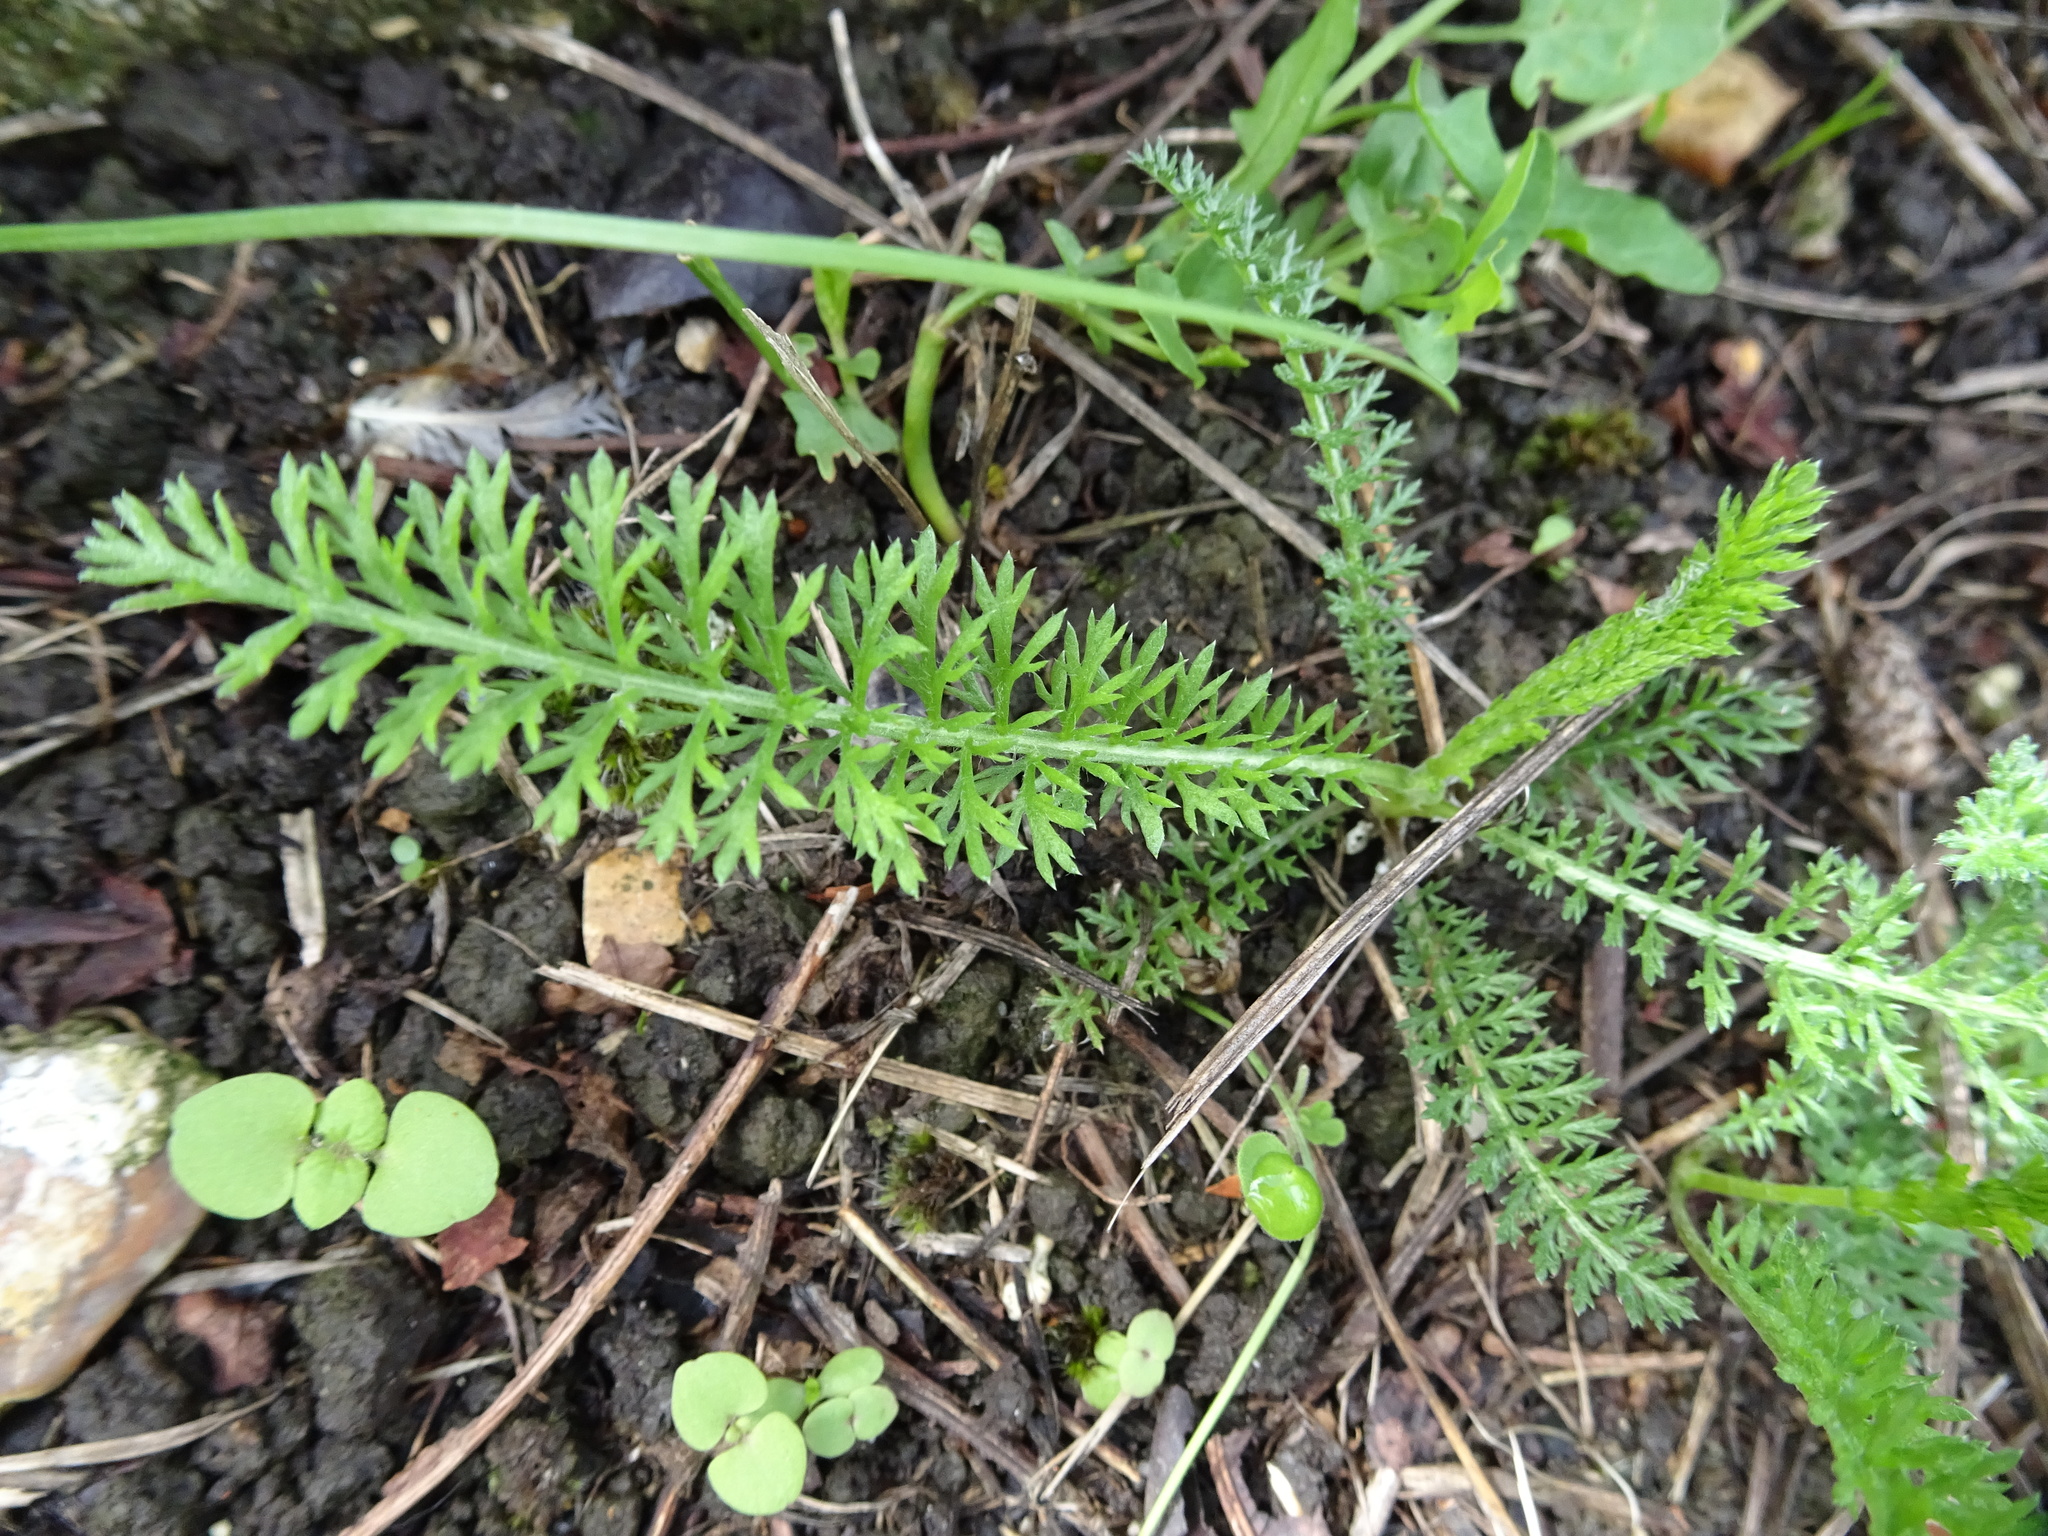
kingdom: Plantae
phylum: Tracheophyta
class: Magnoliopsida
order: Asterales
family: Asteraceae
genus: Achillea
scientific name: Achillea millefolium
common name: Yarrow
